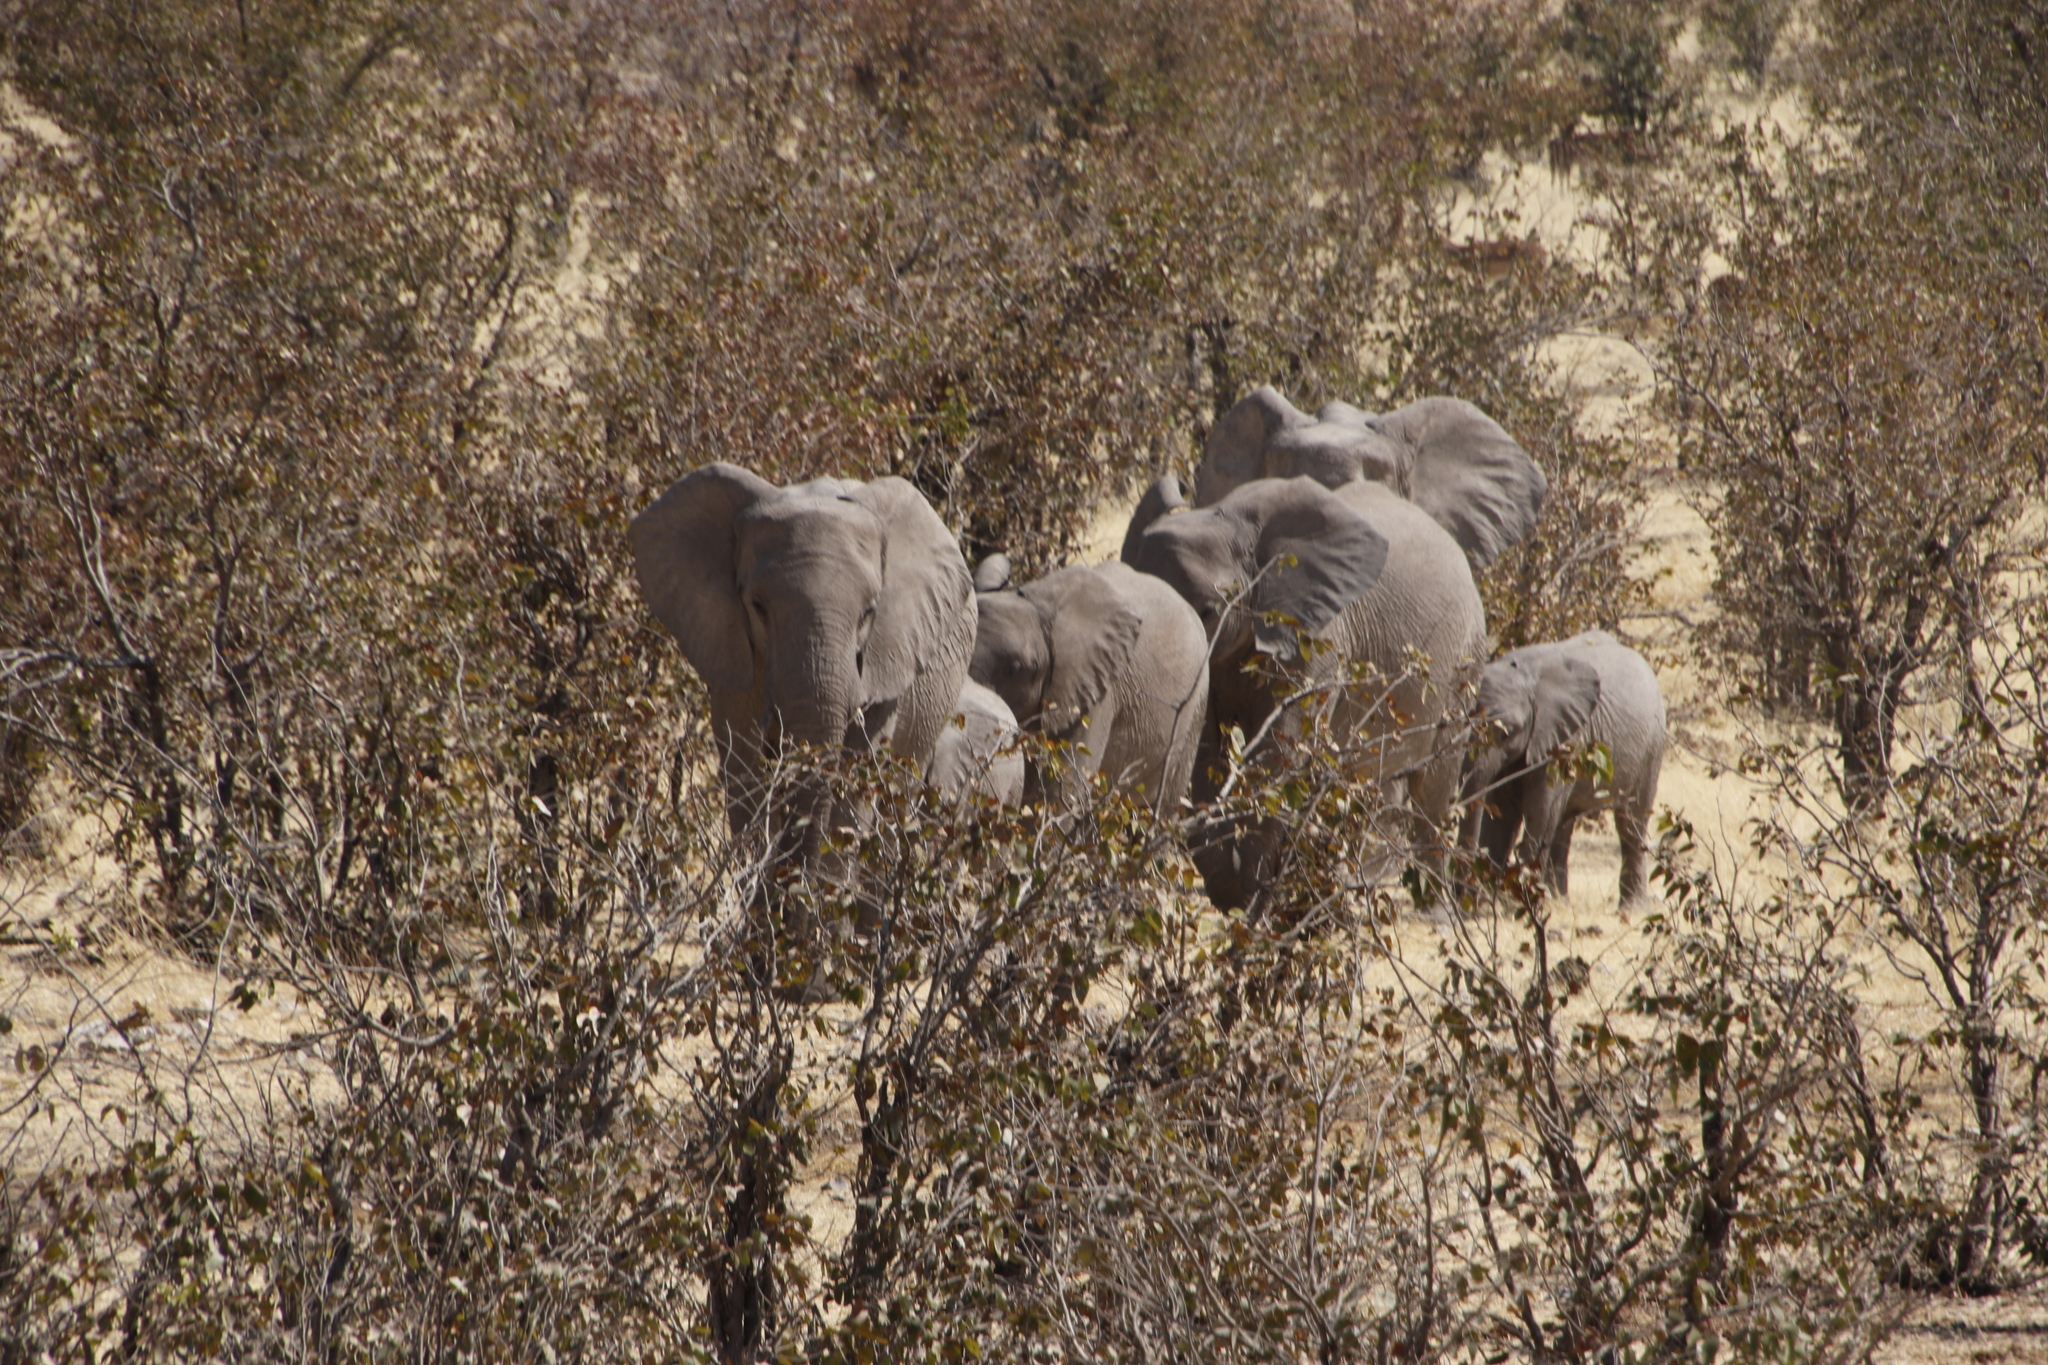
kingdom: Plantae
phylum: Tracheophyta
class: Magnoliopsida
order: Fabales
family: Fabaceae
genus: Colophospermum
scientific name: Colophospermum mopane
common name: Mopane
